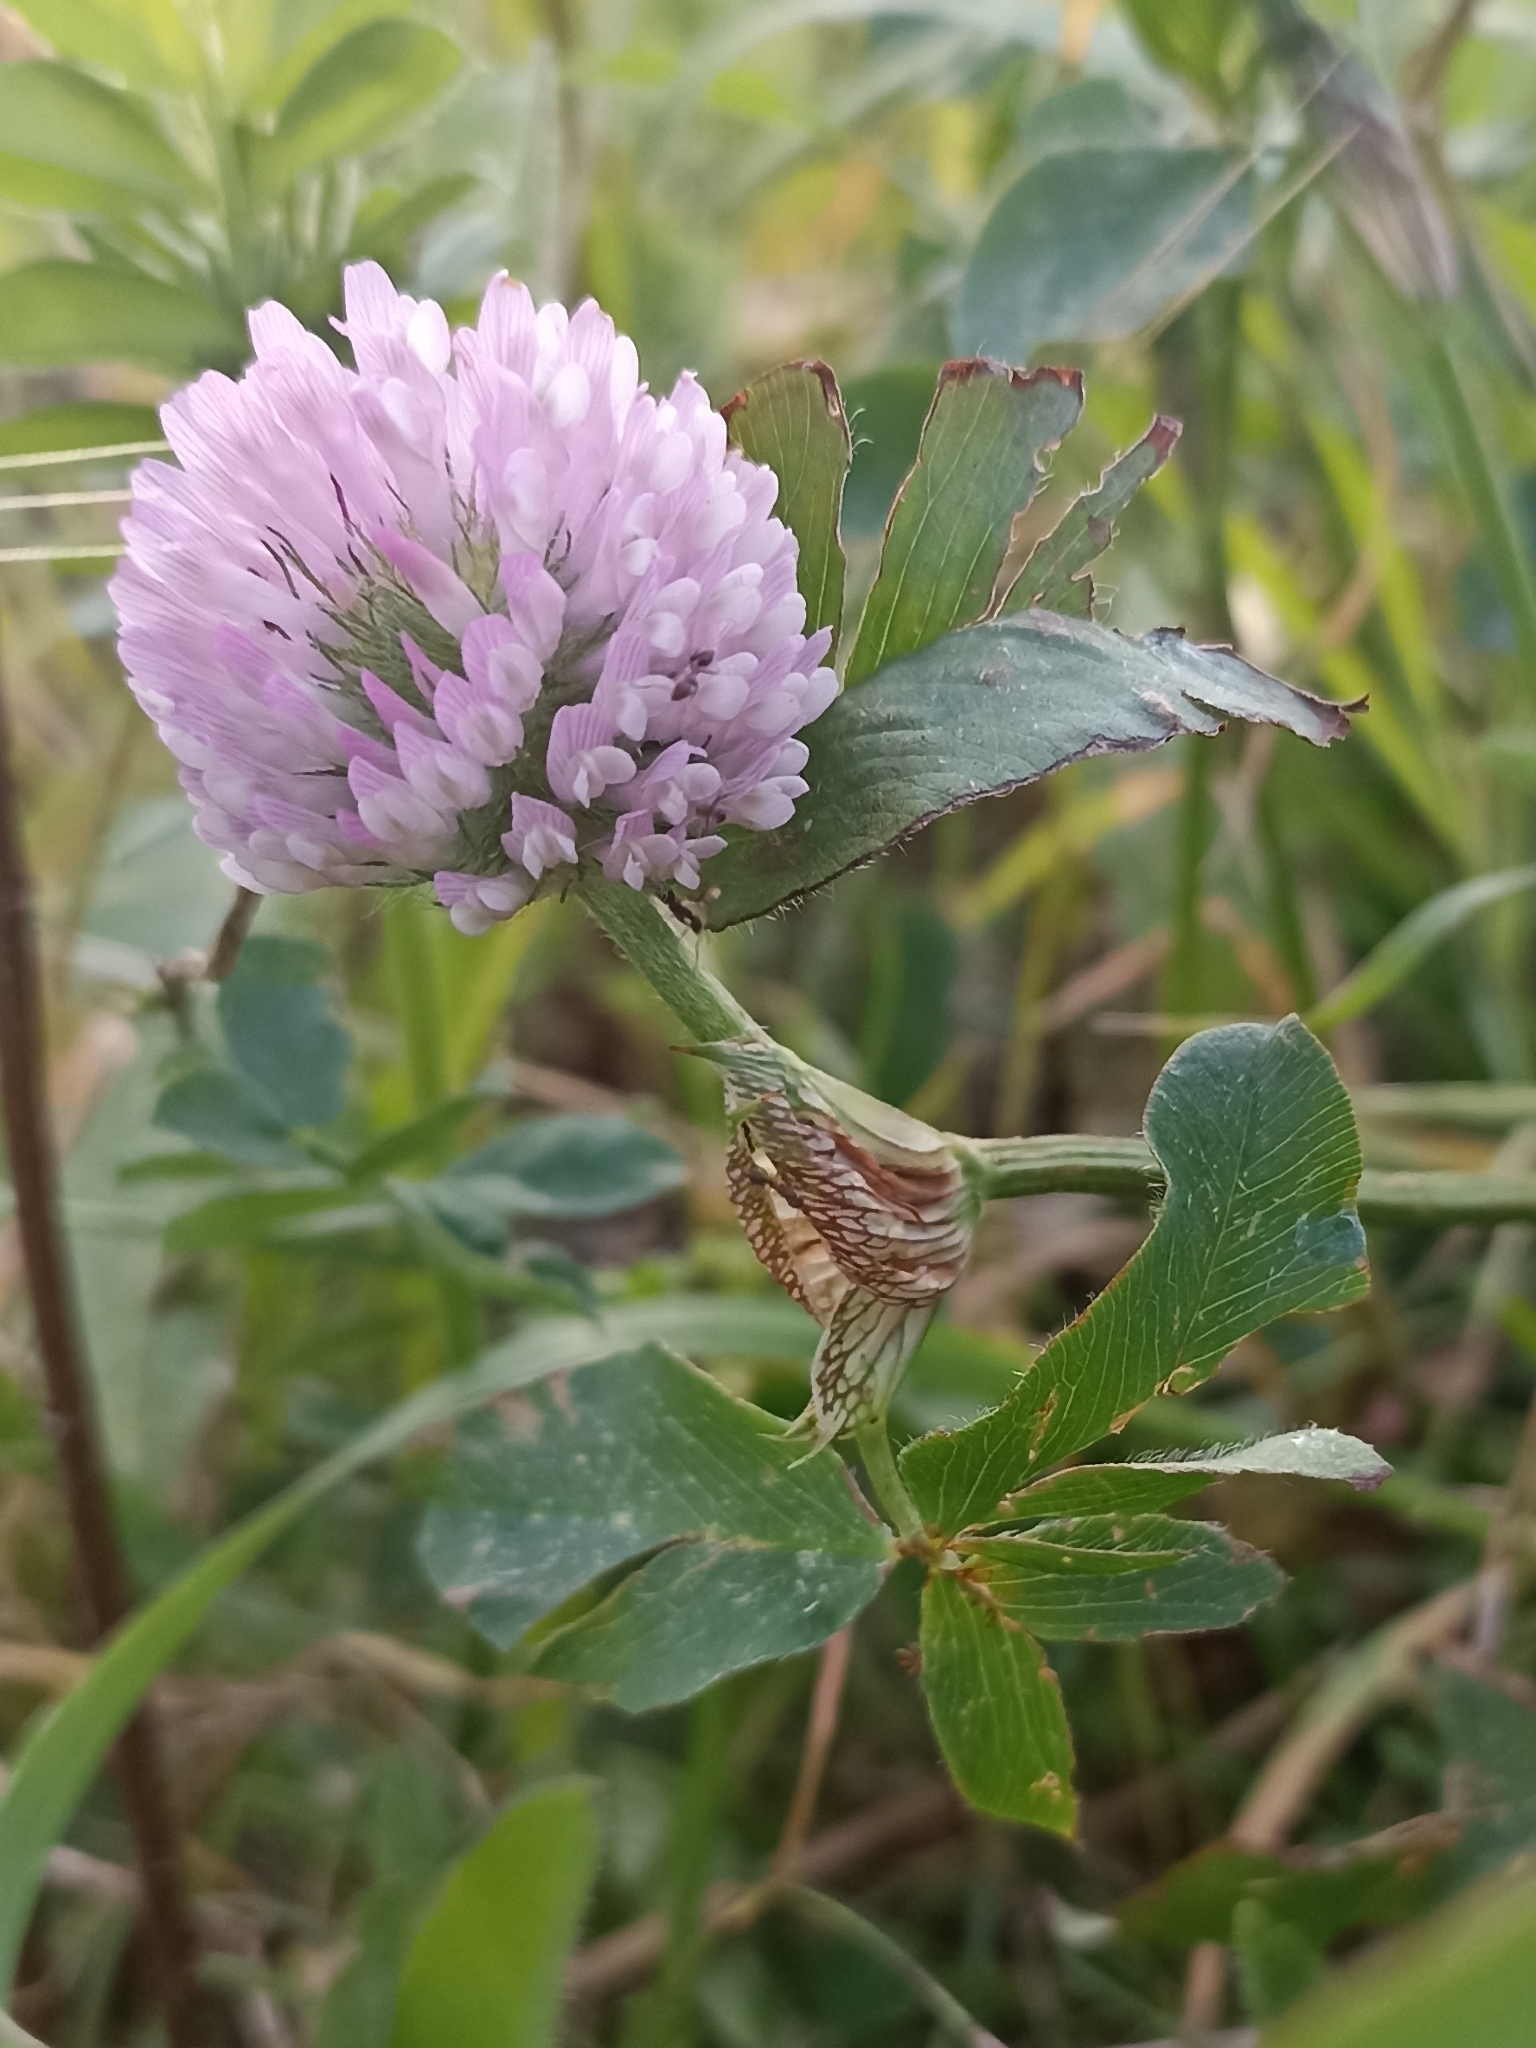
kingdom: Plantae
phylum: Tracheophyta
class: Magnoliopsida
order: Fabales
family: Fabaceae
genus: Trifolium
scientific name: Trifolium pratense
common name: Red clover
